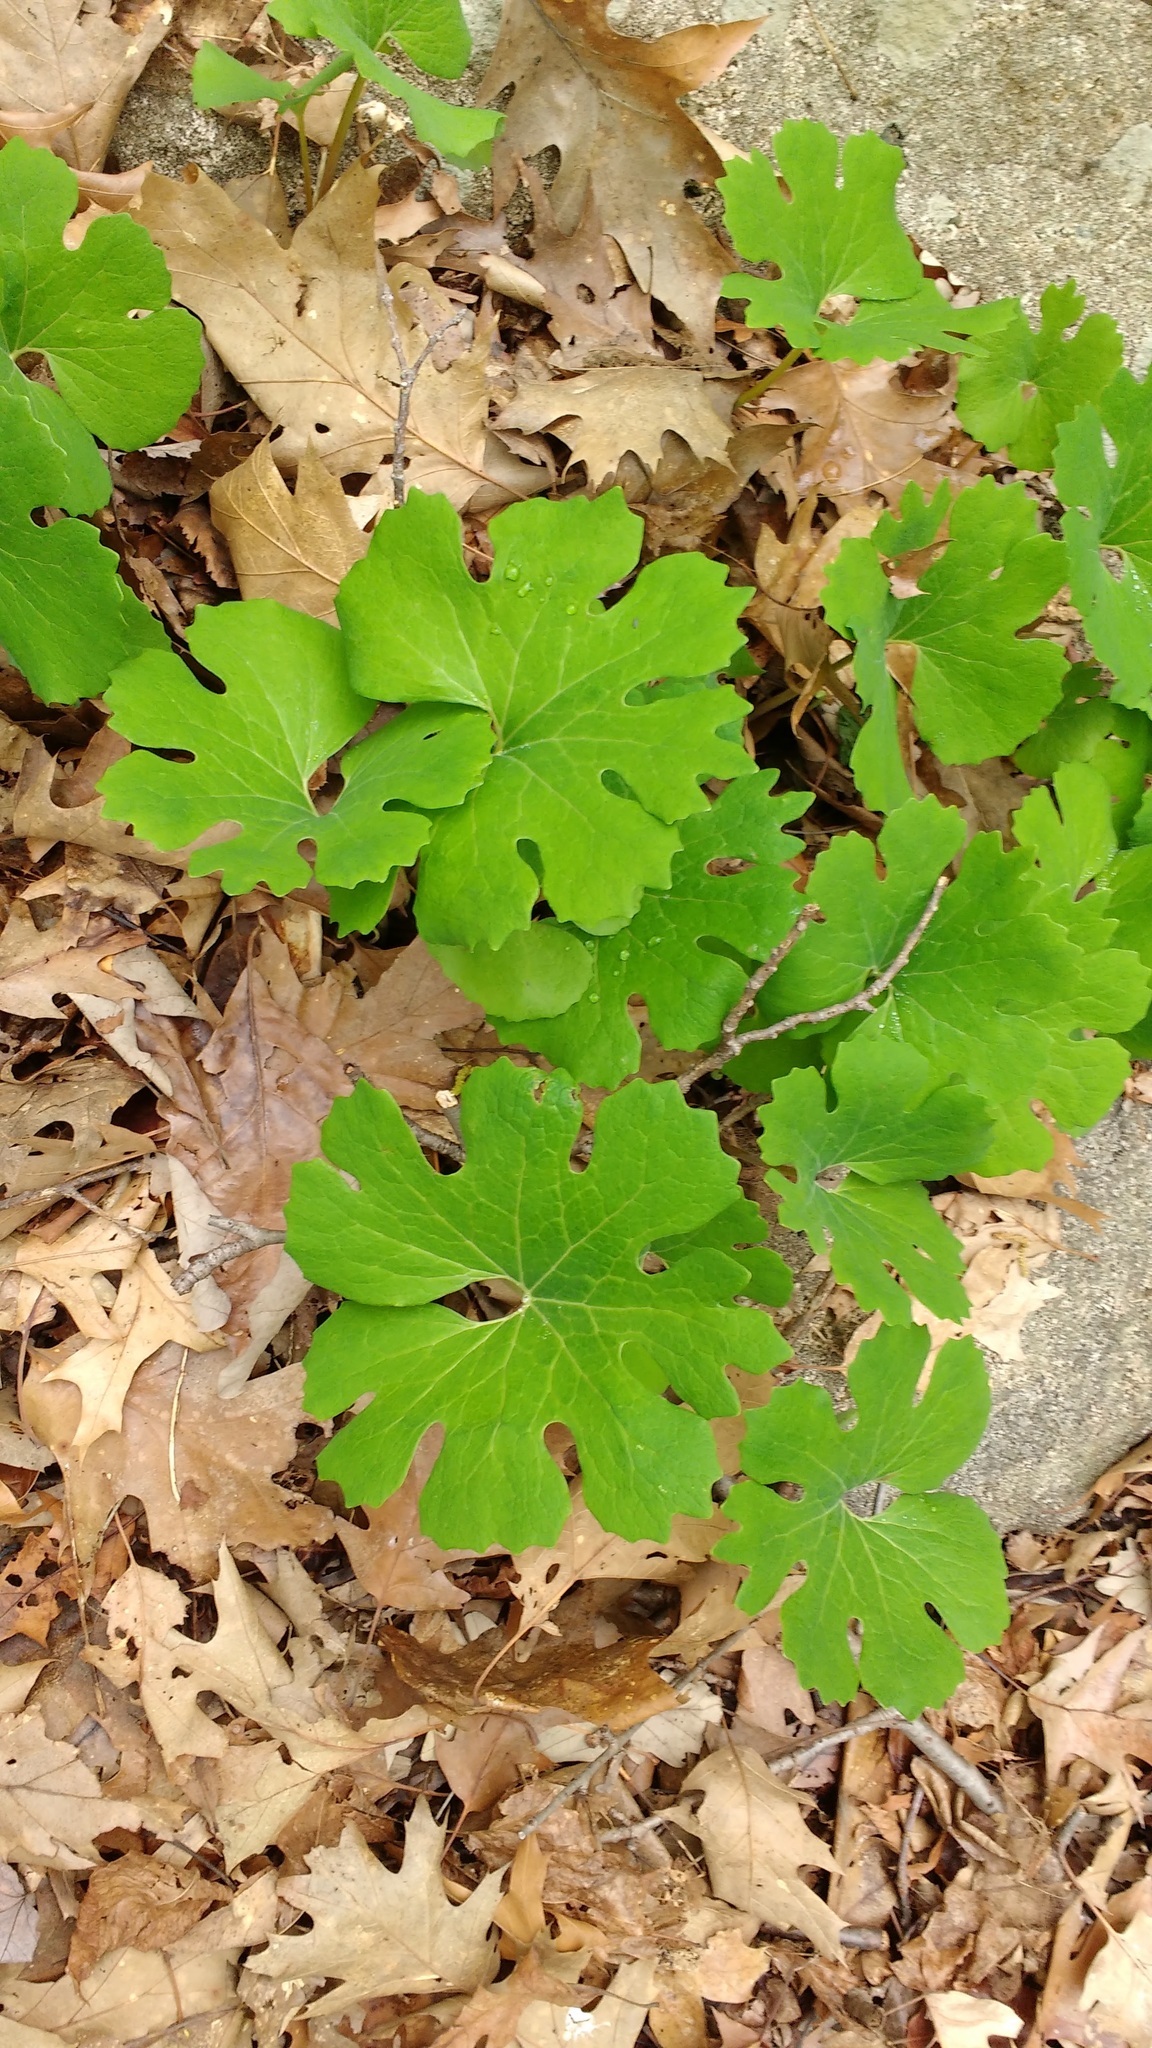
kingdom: Plantae
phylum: Tracheophyta
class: Magnoliopsida
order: Ranunculales
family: Papaveraceae
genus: Sanguinaria
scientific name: Sanguinaria canadensis
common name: Bloodroot
